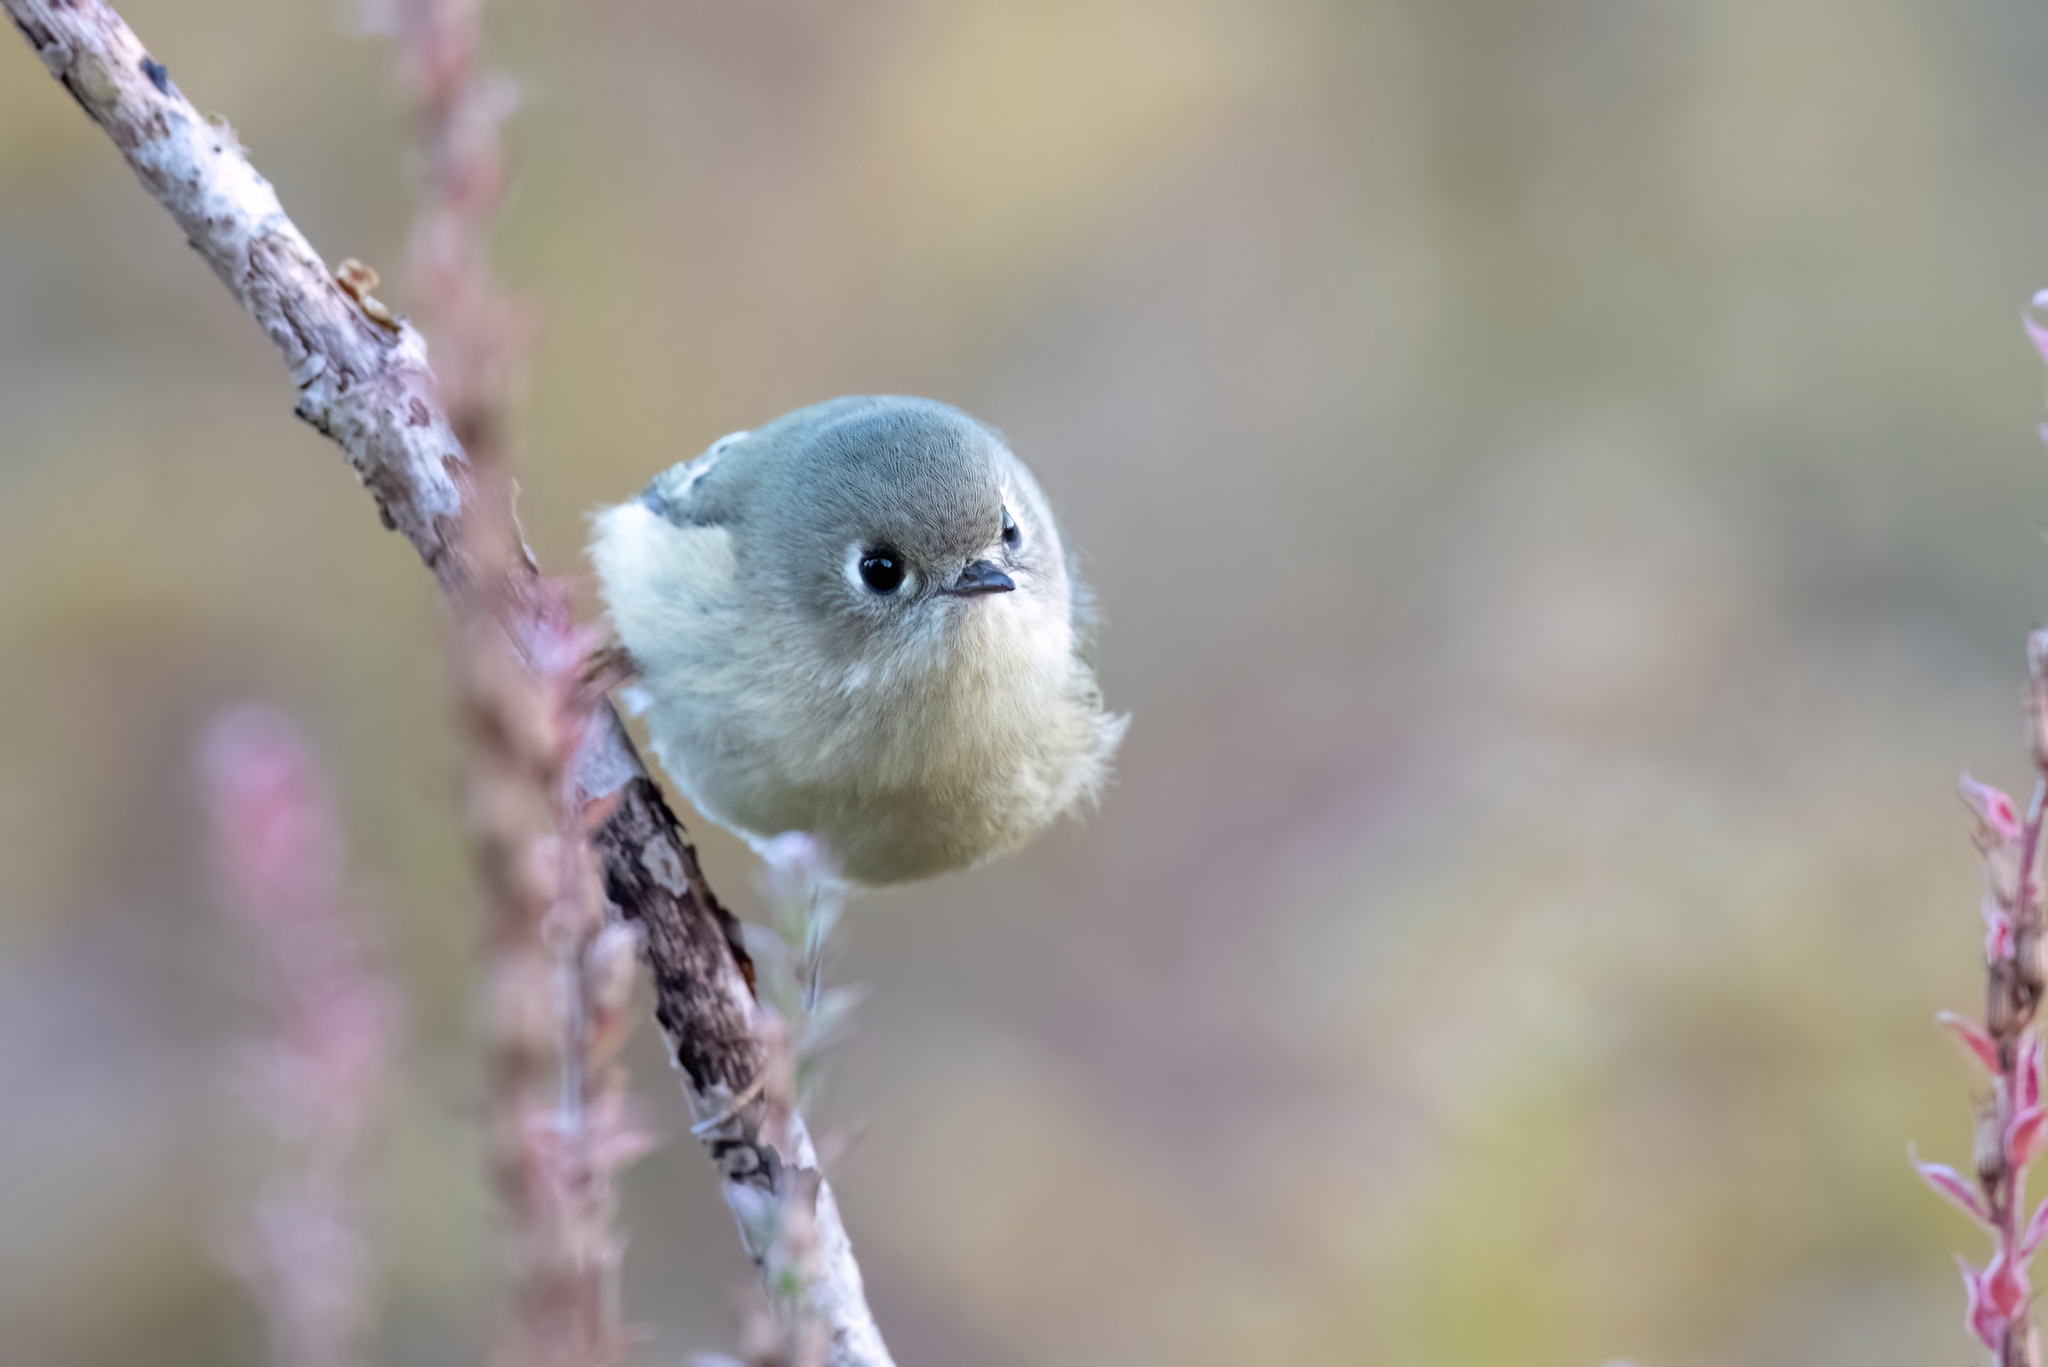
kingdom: Animalia
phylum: Chordata
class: Aves
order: Passeriformes
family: Regulidae
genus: Regulus
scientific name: Regulus calendula
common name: Ruby-crowned kinglet
